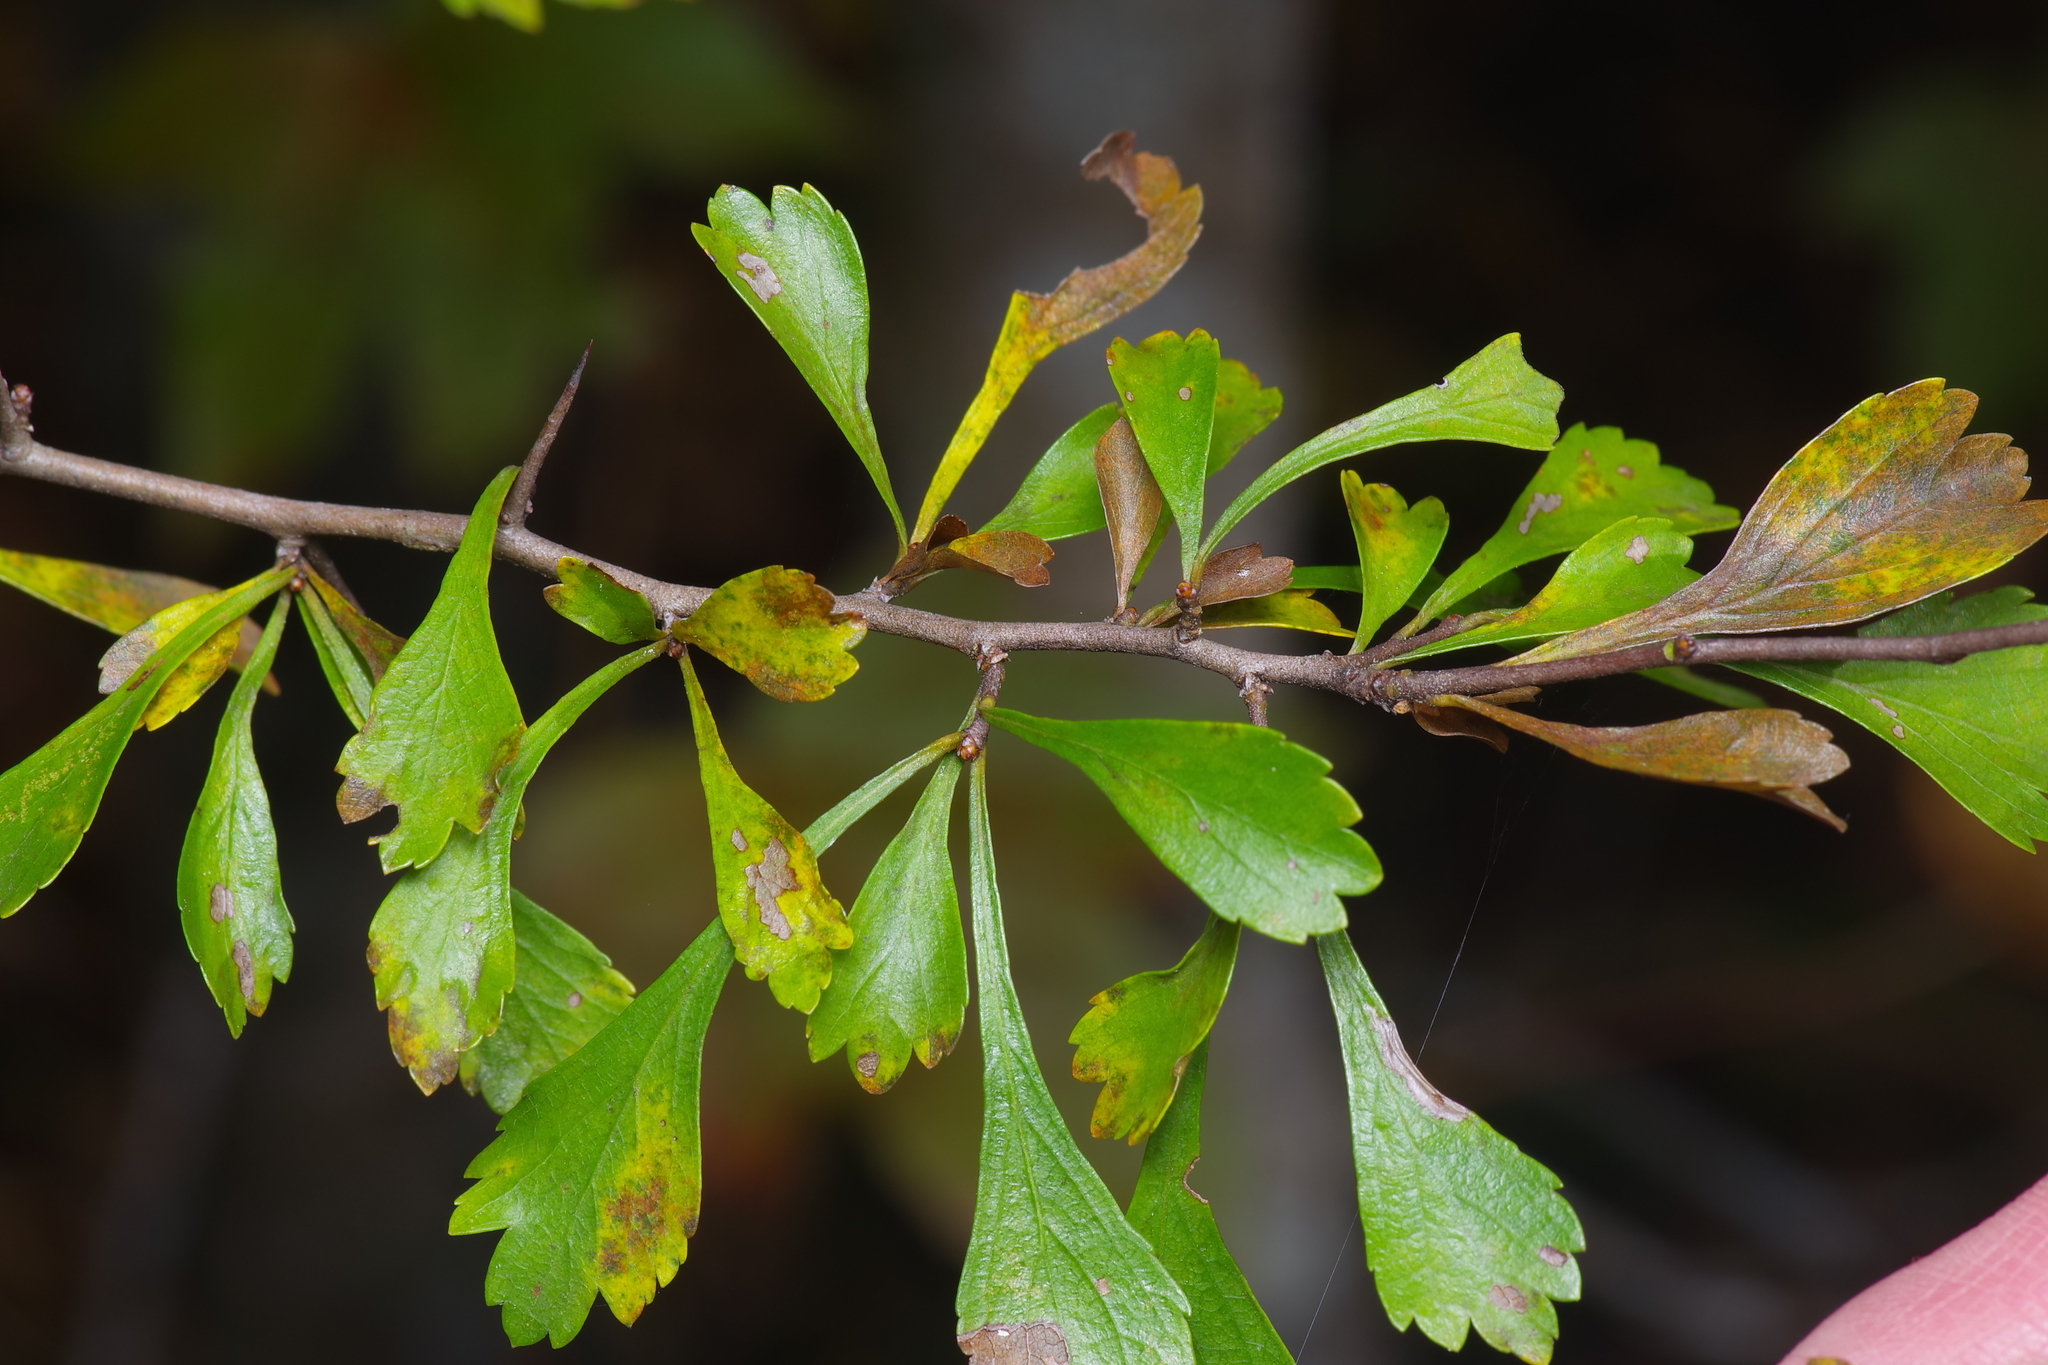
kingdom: Plantae
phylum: Tracheophyta
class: Magnoliopsida
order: Rosales
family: Rosaceae
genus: Crataegus
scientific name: Crataegus spathulata
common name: Littlehip hawthorn
